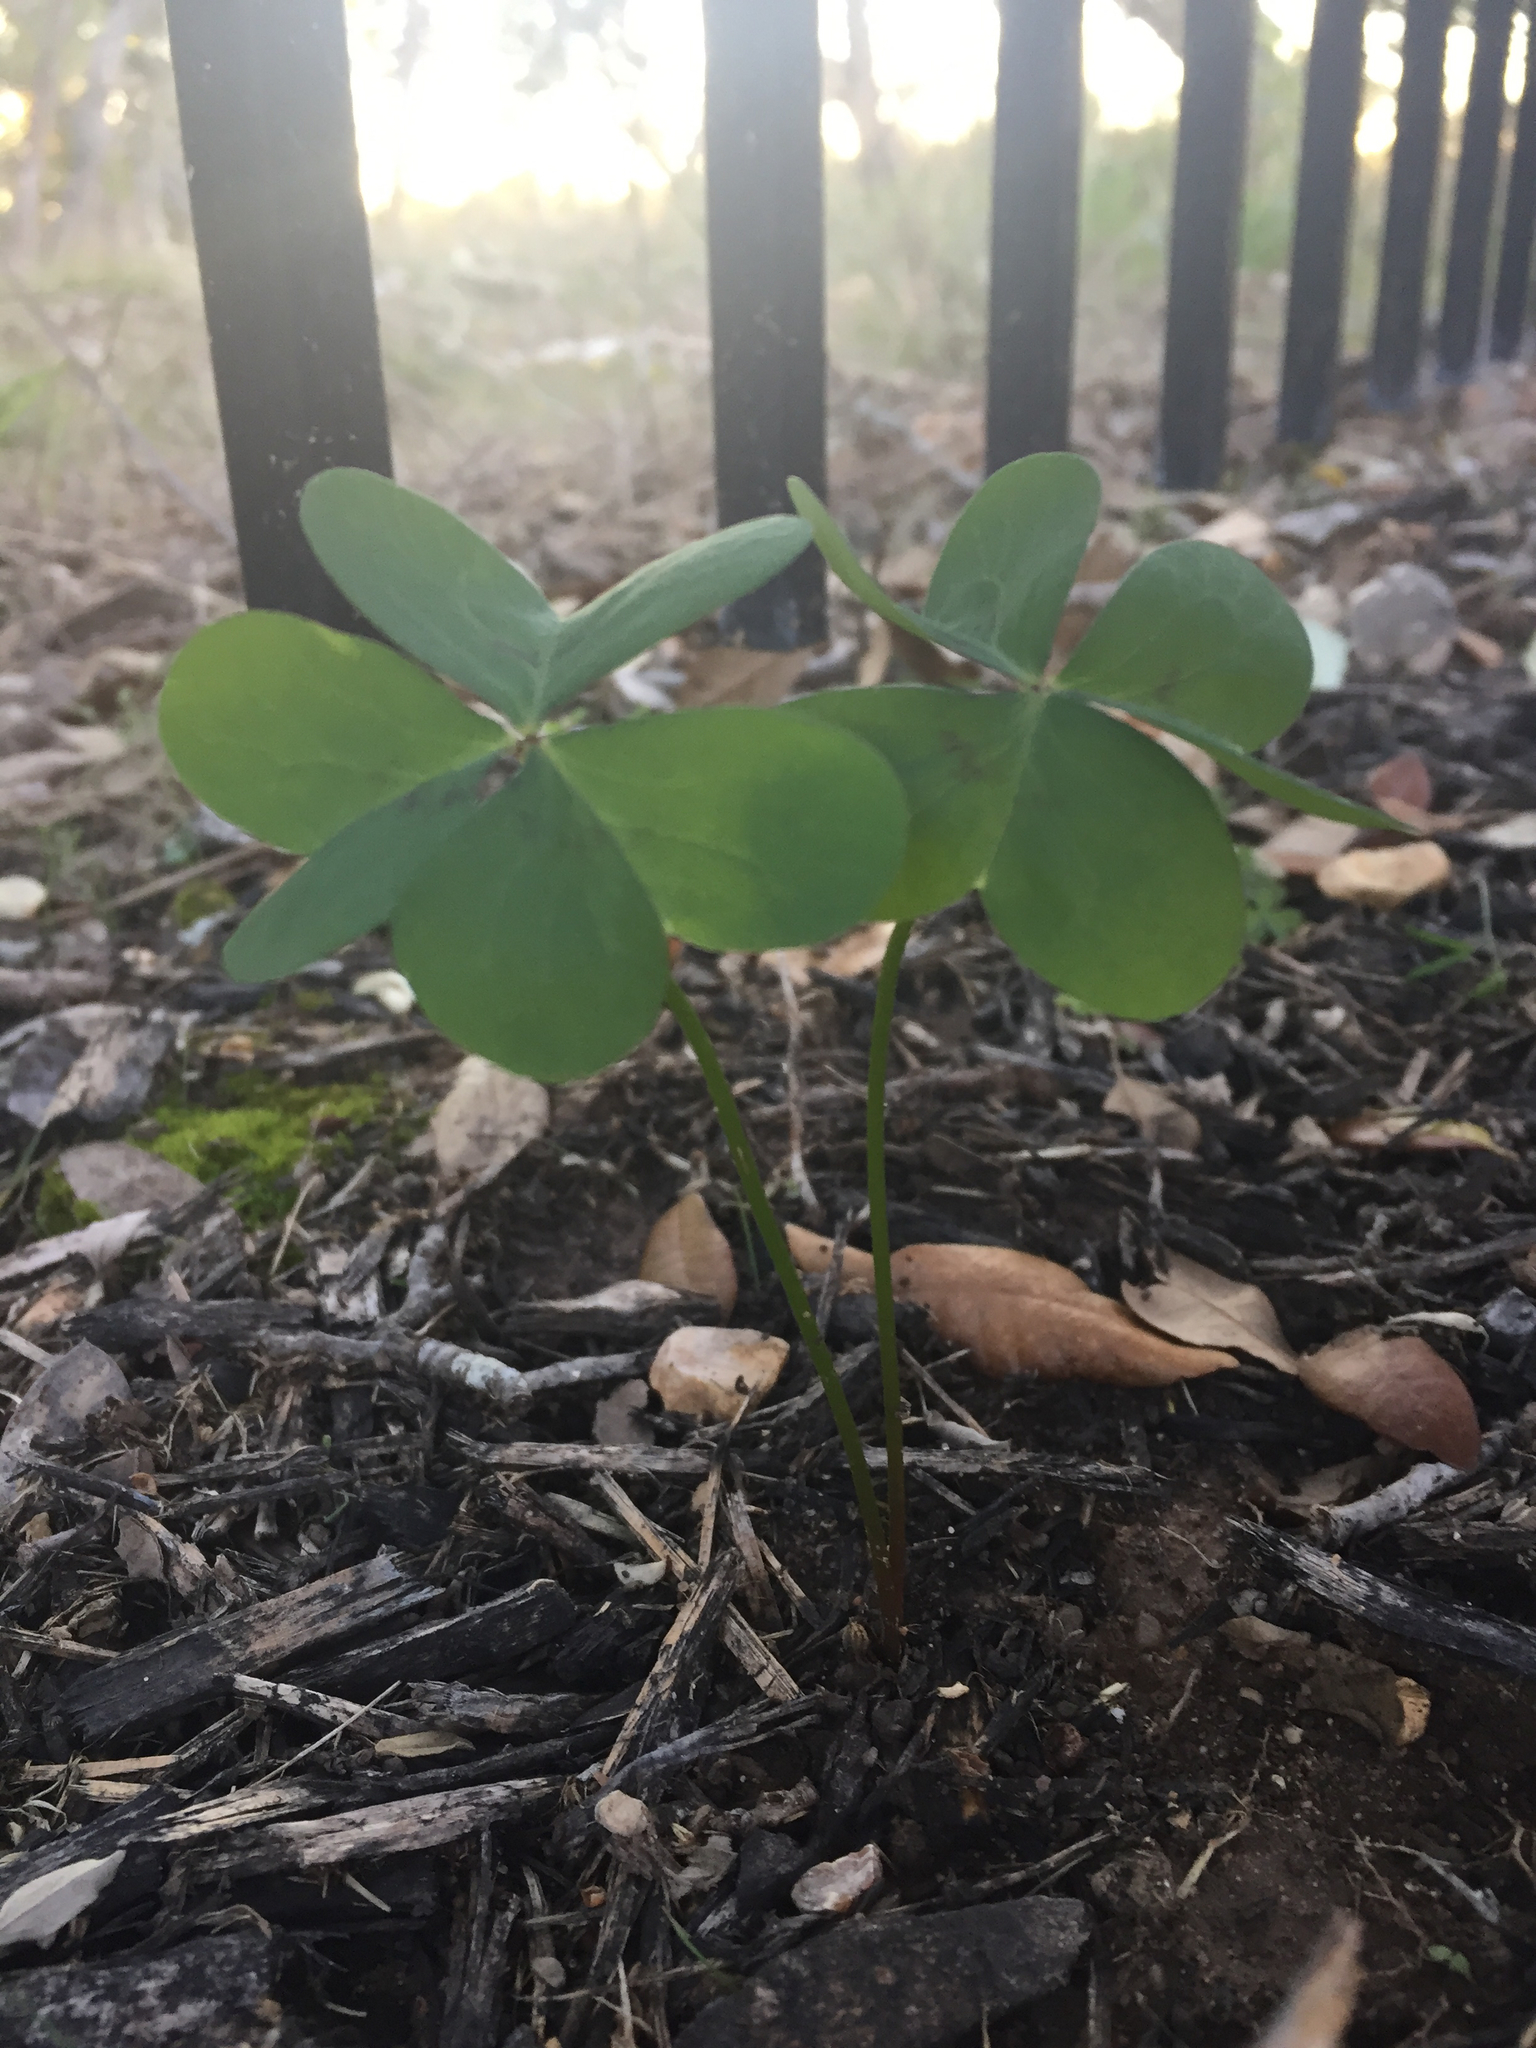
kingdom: Plantae
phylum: Tracheophyta
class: Magnoliopsida
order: Oxalidales
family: Oxalidaceae
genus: Oxalis
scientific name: Oxalis drummondii
